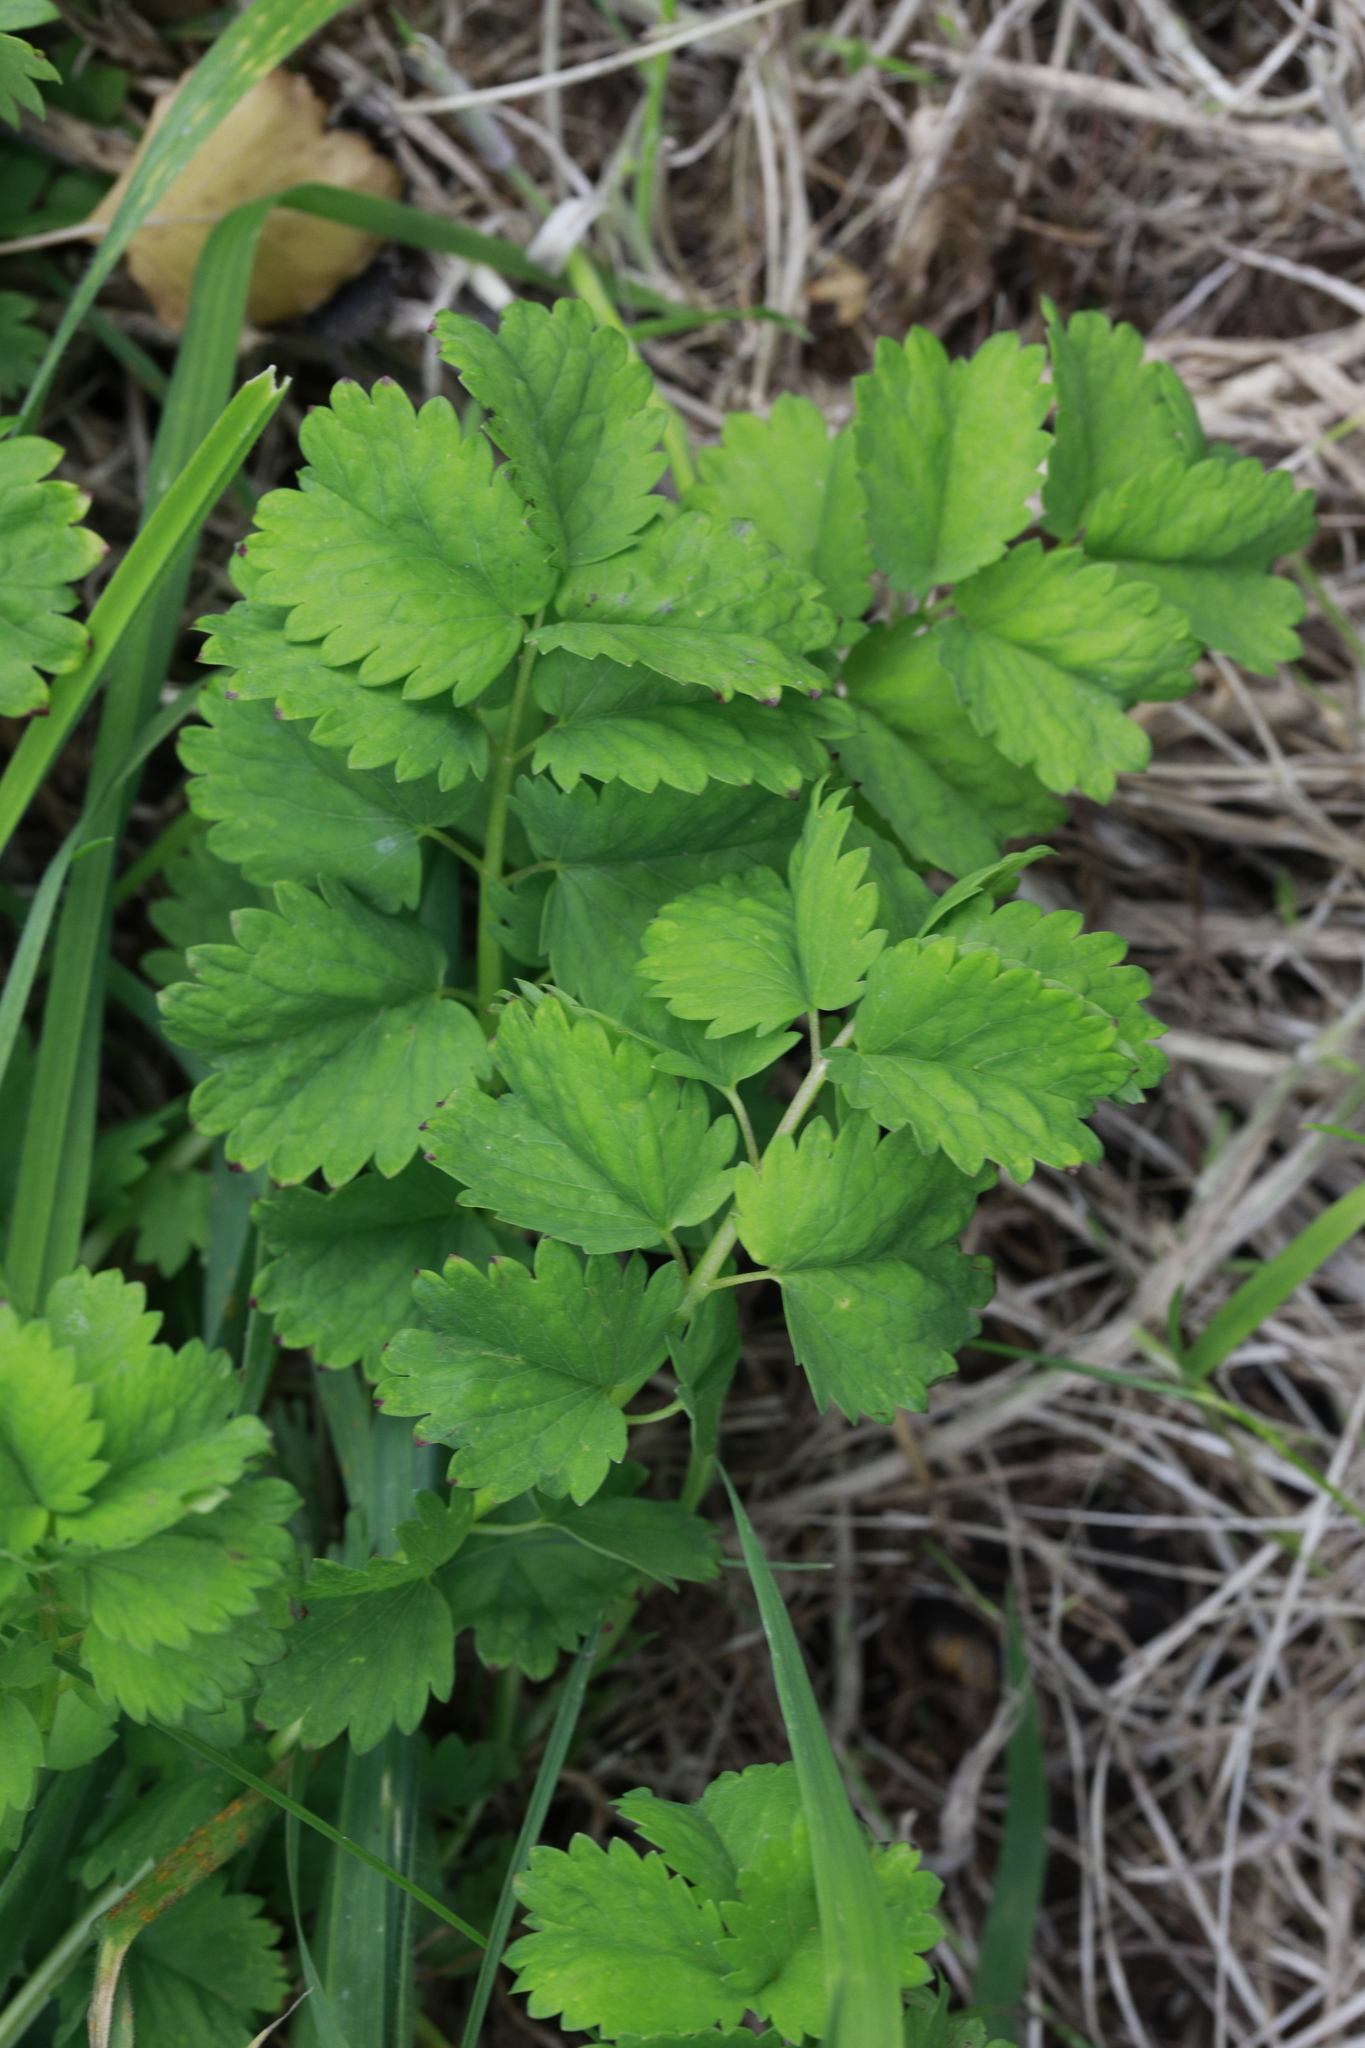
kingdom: Plantae
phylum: Tracheophyta
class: Magnoliopsida
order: Rosales
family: Rosaceae
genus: Poterium
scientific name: Poterium sanguisorba
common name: Salad burnet
